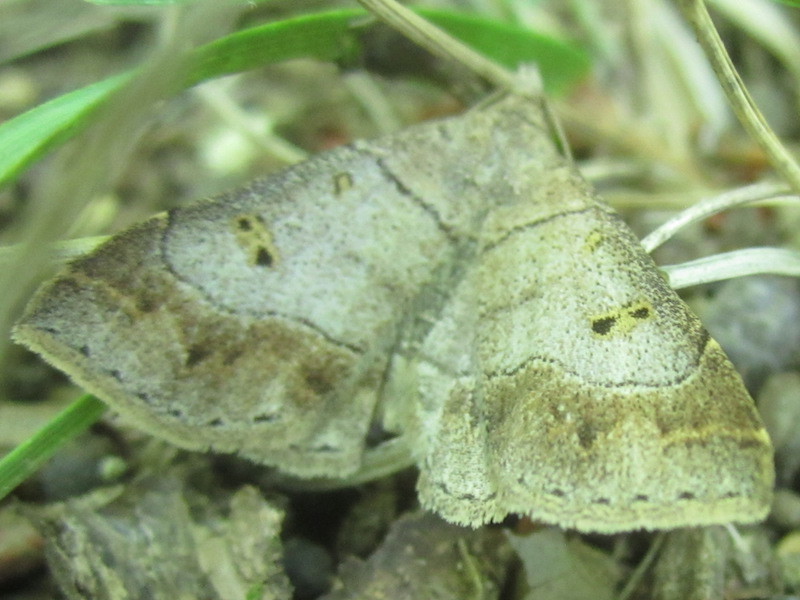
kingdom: Animalia
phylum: Arthropoda
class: Insecta
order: Lepidoptera
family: Erebidae
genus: Renia
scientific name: Renia flavipunctalis
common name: Yellow-spotted renia moth
